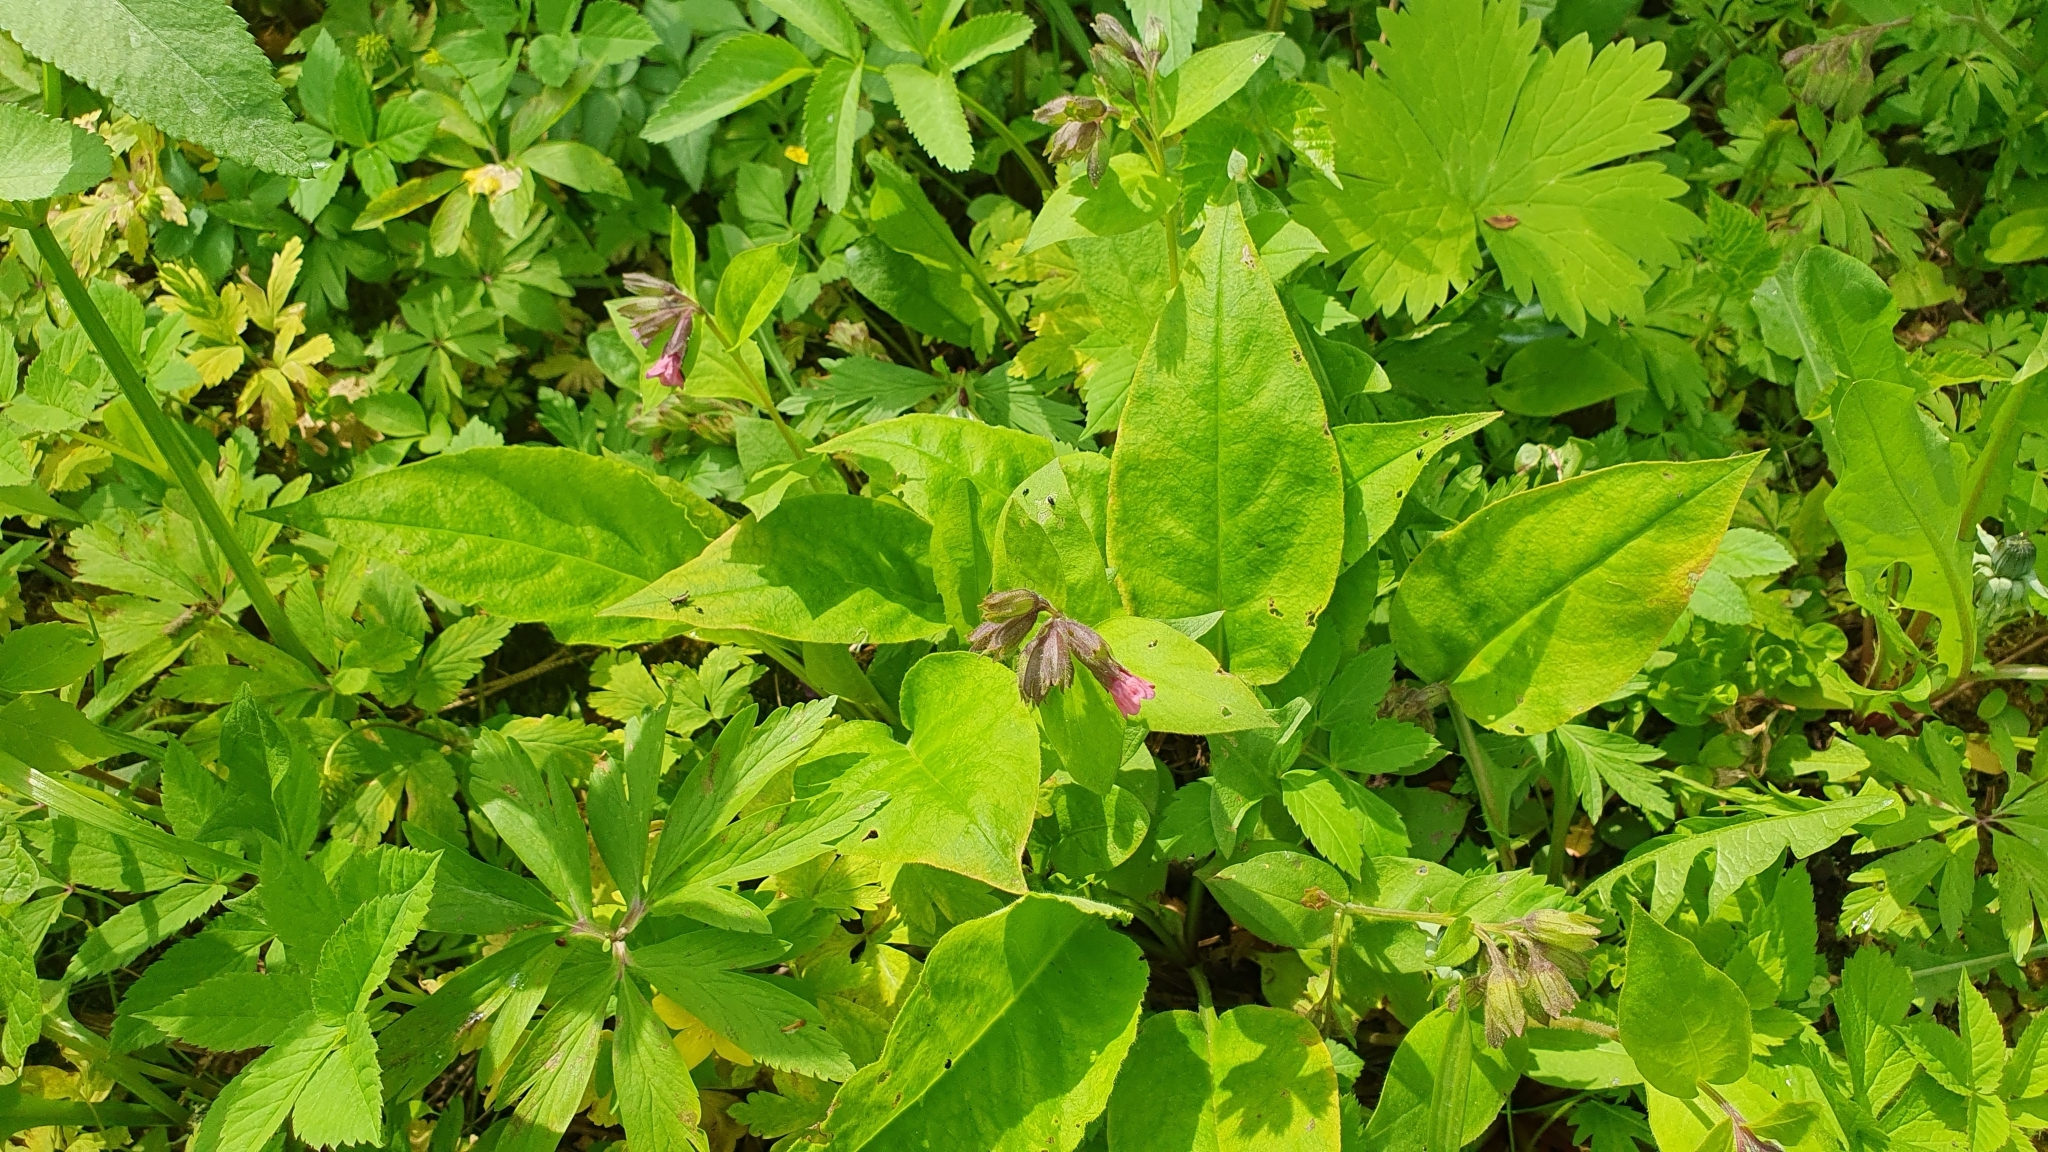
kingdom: Plantae
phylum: Tracheophyta
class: Magnoliopsida
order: Boraginales
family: Boraginaceae
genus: Pulmonaria
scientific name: Pulmonaria obscura
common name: Suffolk lungwort
